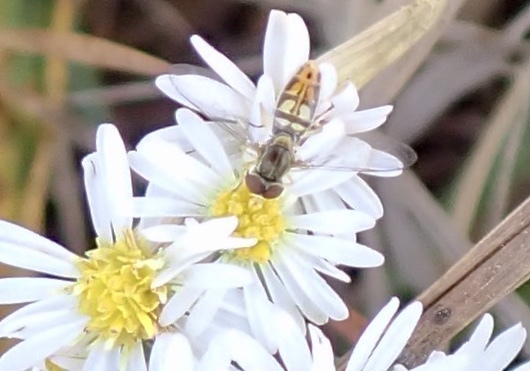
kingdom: Animalia
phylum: Arthropoda
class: Insecta
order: Diptera
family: Syrphidae
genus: Toxomerus
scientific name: Toxomerus marginatus
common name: Syrphid fly
